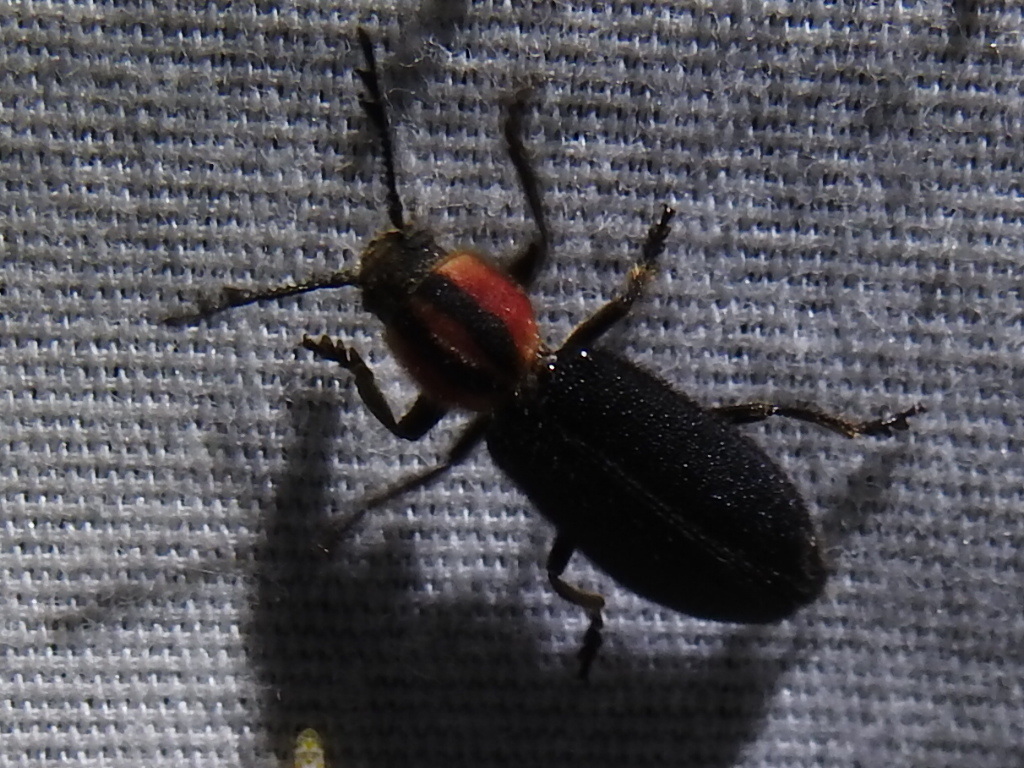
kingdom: Animalia
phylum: Arthropoda
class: Insecta
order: Coleoptera
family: Cleridae
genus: Chariessa
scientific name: Chariessa pilosa
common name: Pilose checkered beetle
